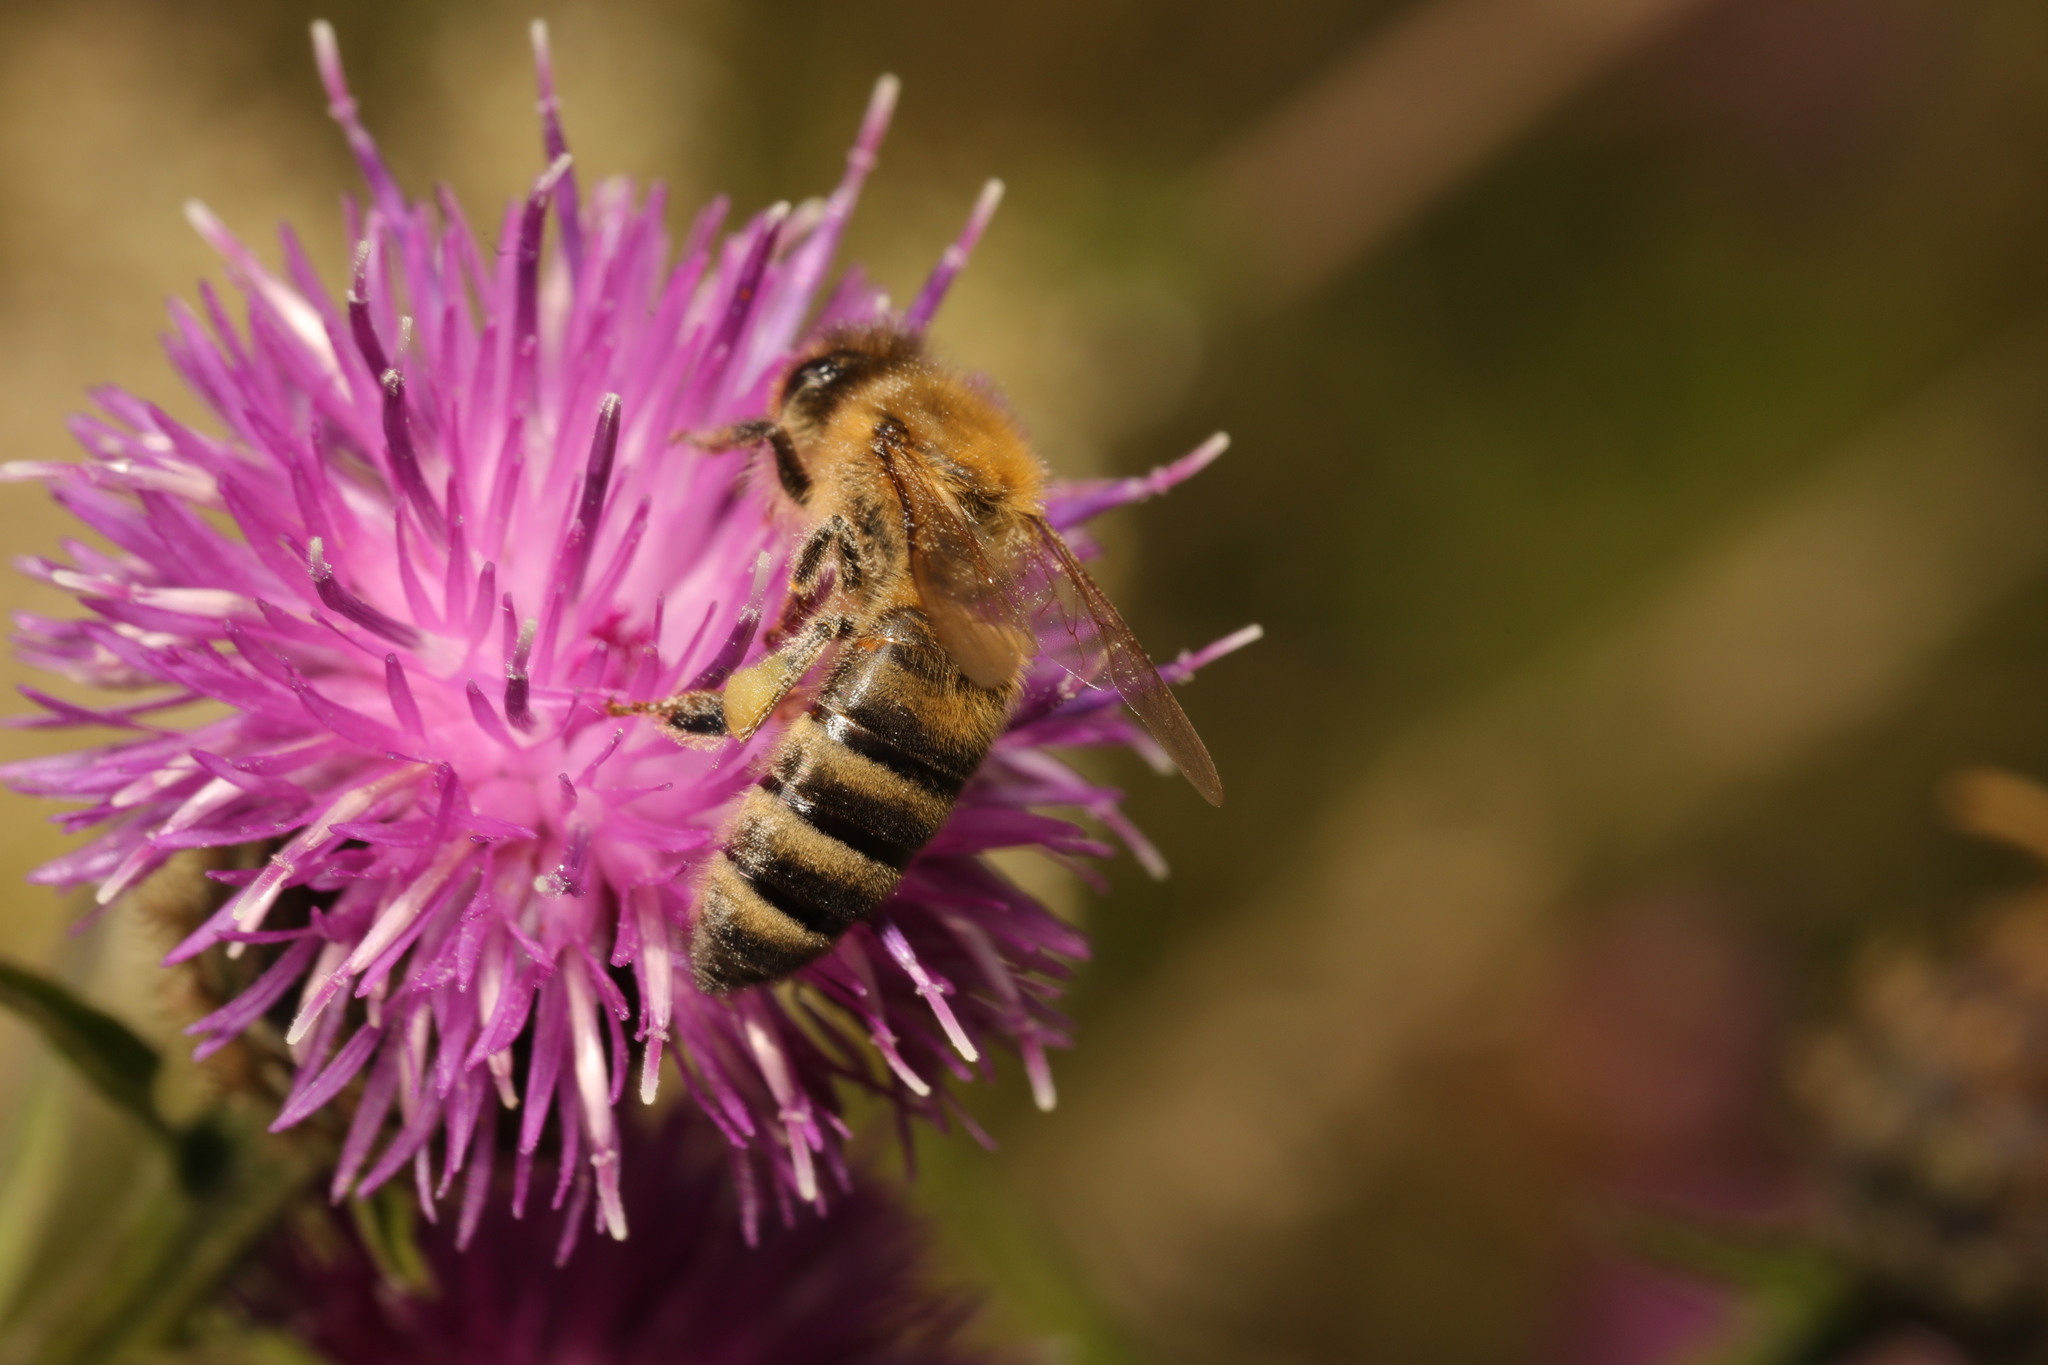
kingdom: Animalia
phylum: Arthropoda
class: Insecta
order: Hymenoptera
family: Apidae
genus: Apis
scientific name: Apis mellifera
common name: Honey bee
